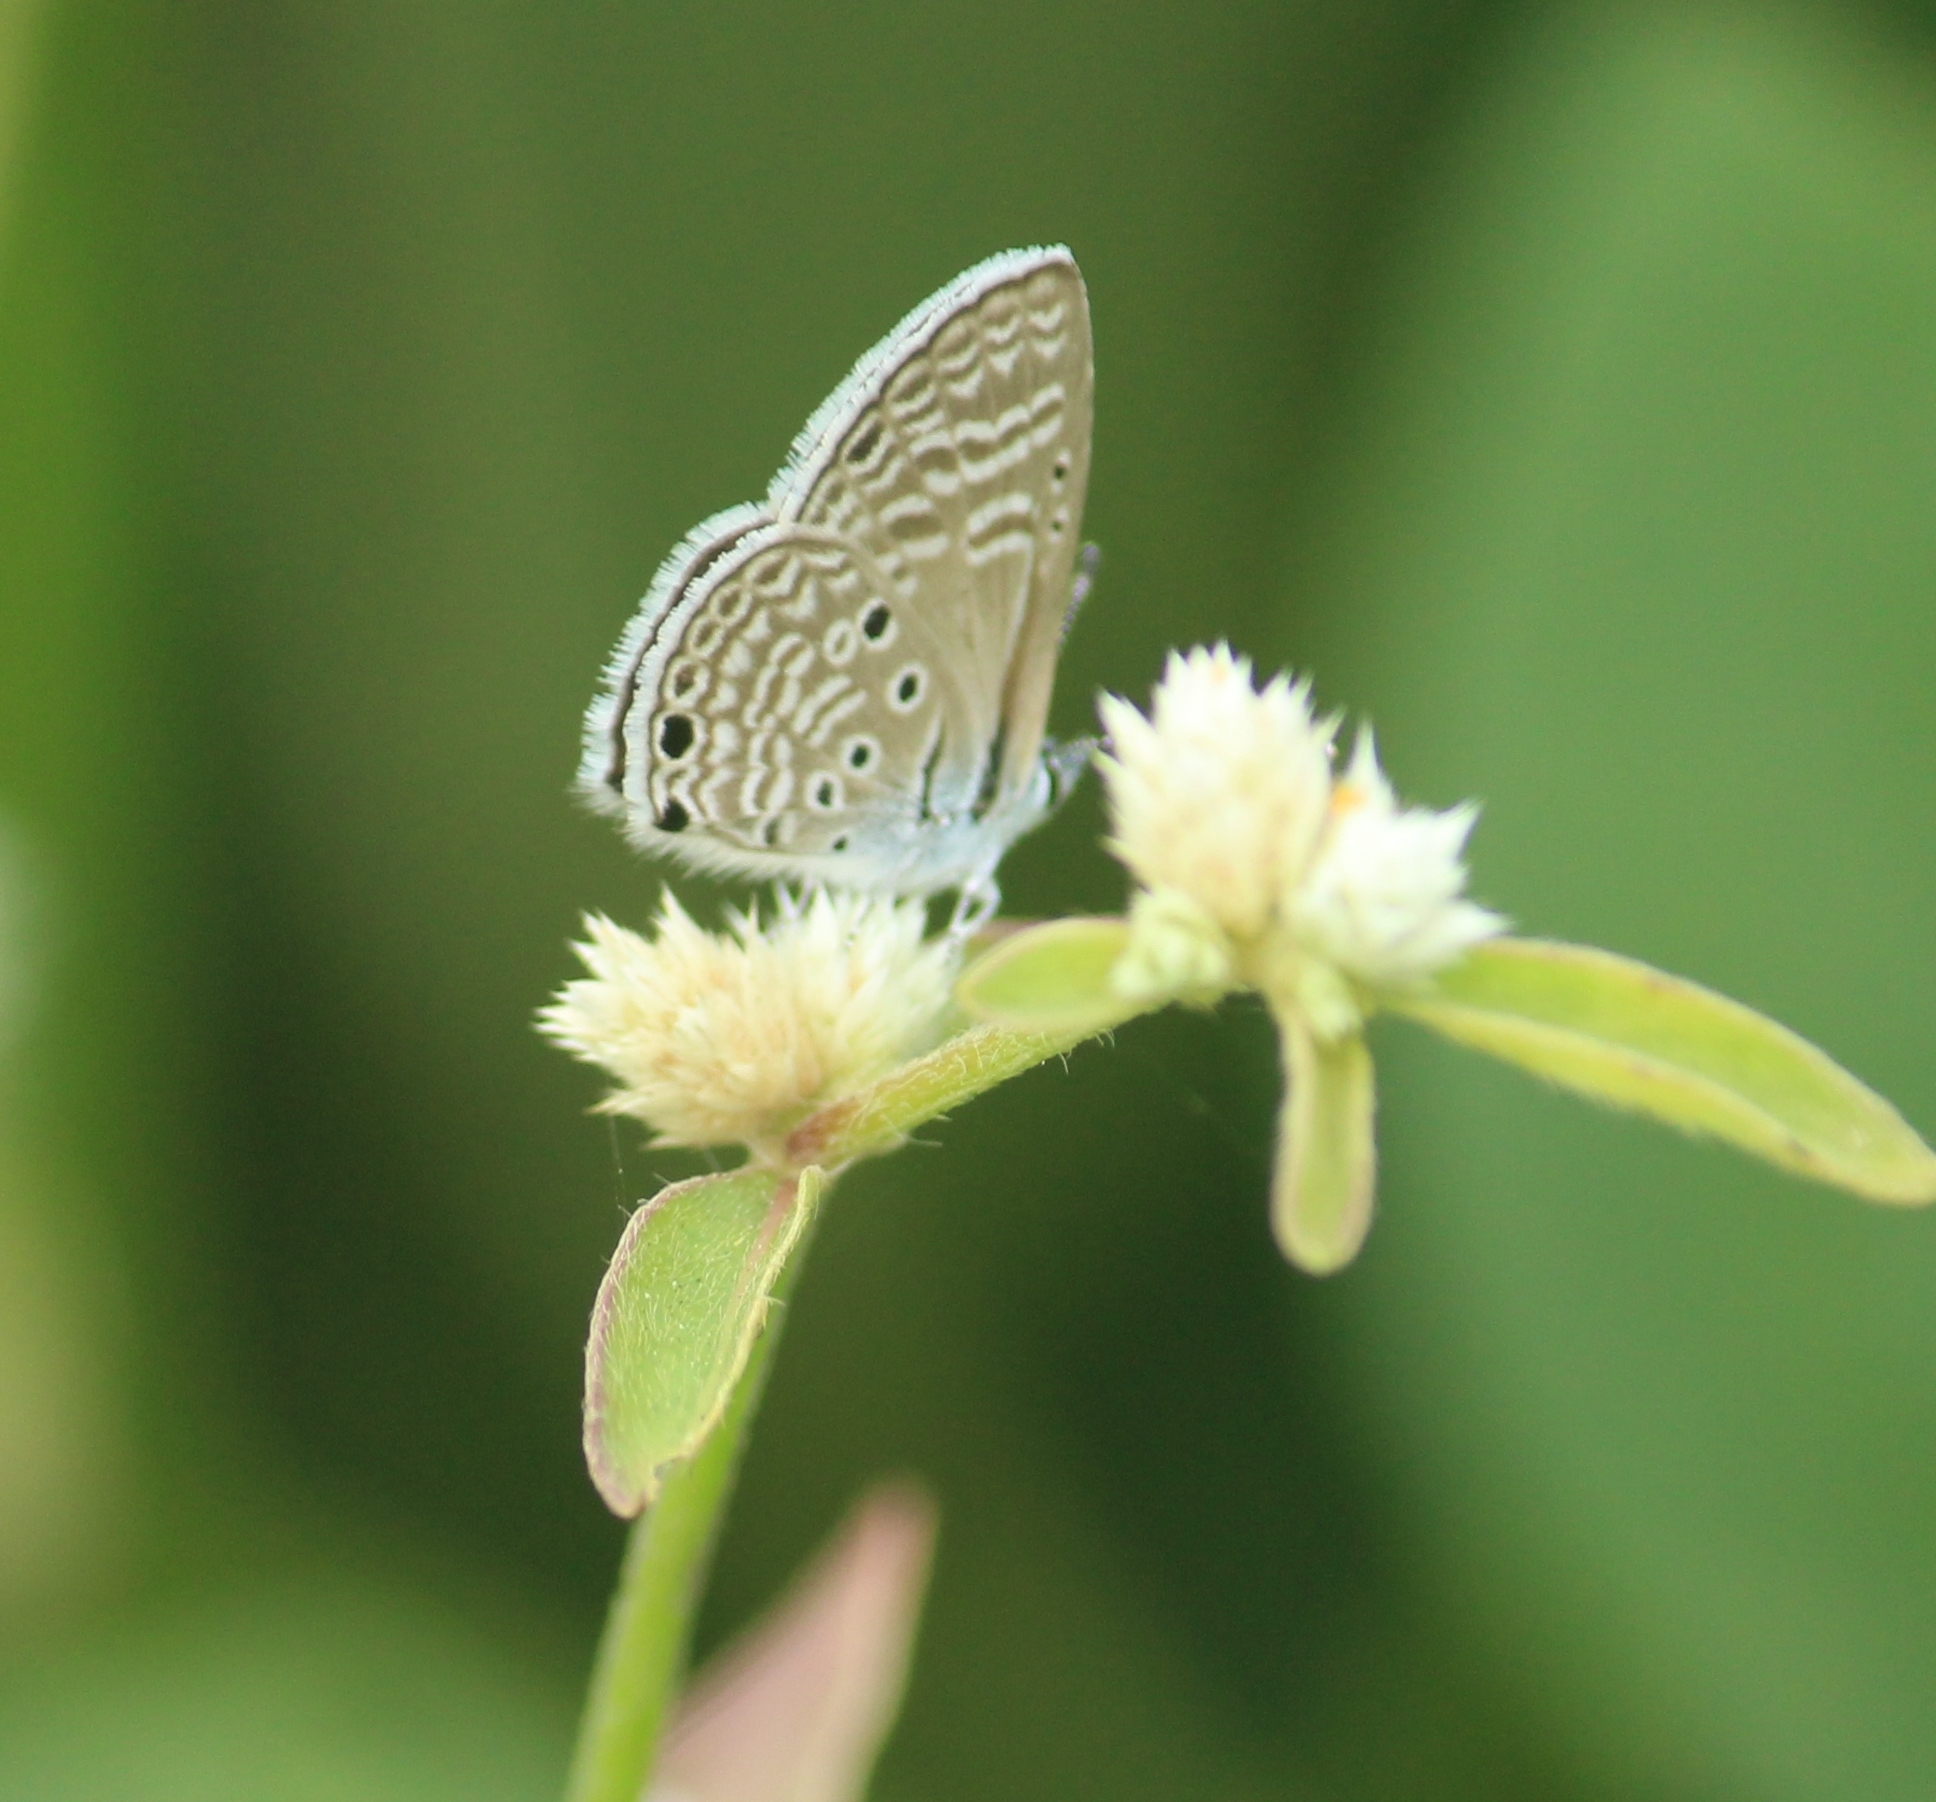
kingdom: Animalia
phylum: Arthropoda
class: Insecta
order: Lepidoptera
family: Lycaenidae
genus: Azanus
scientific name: Azanus ubaldus
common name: Desert babul blue
